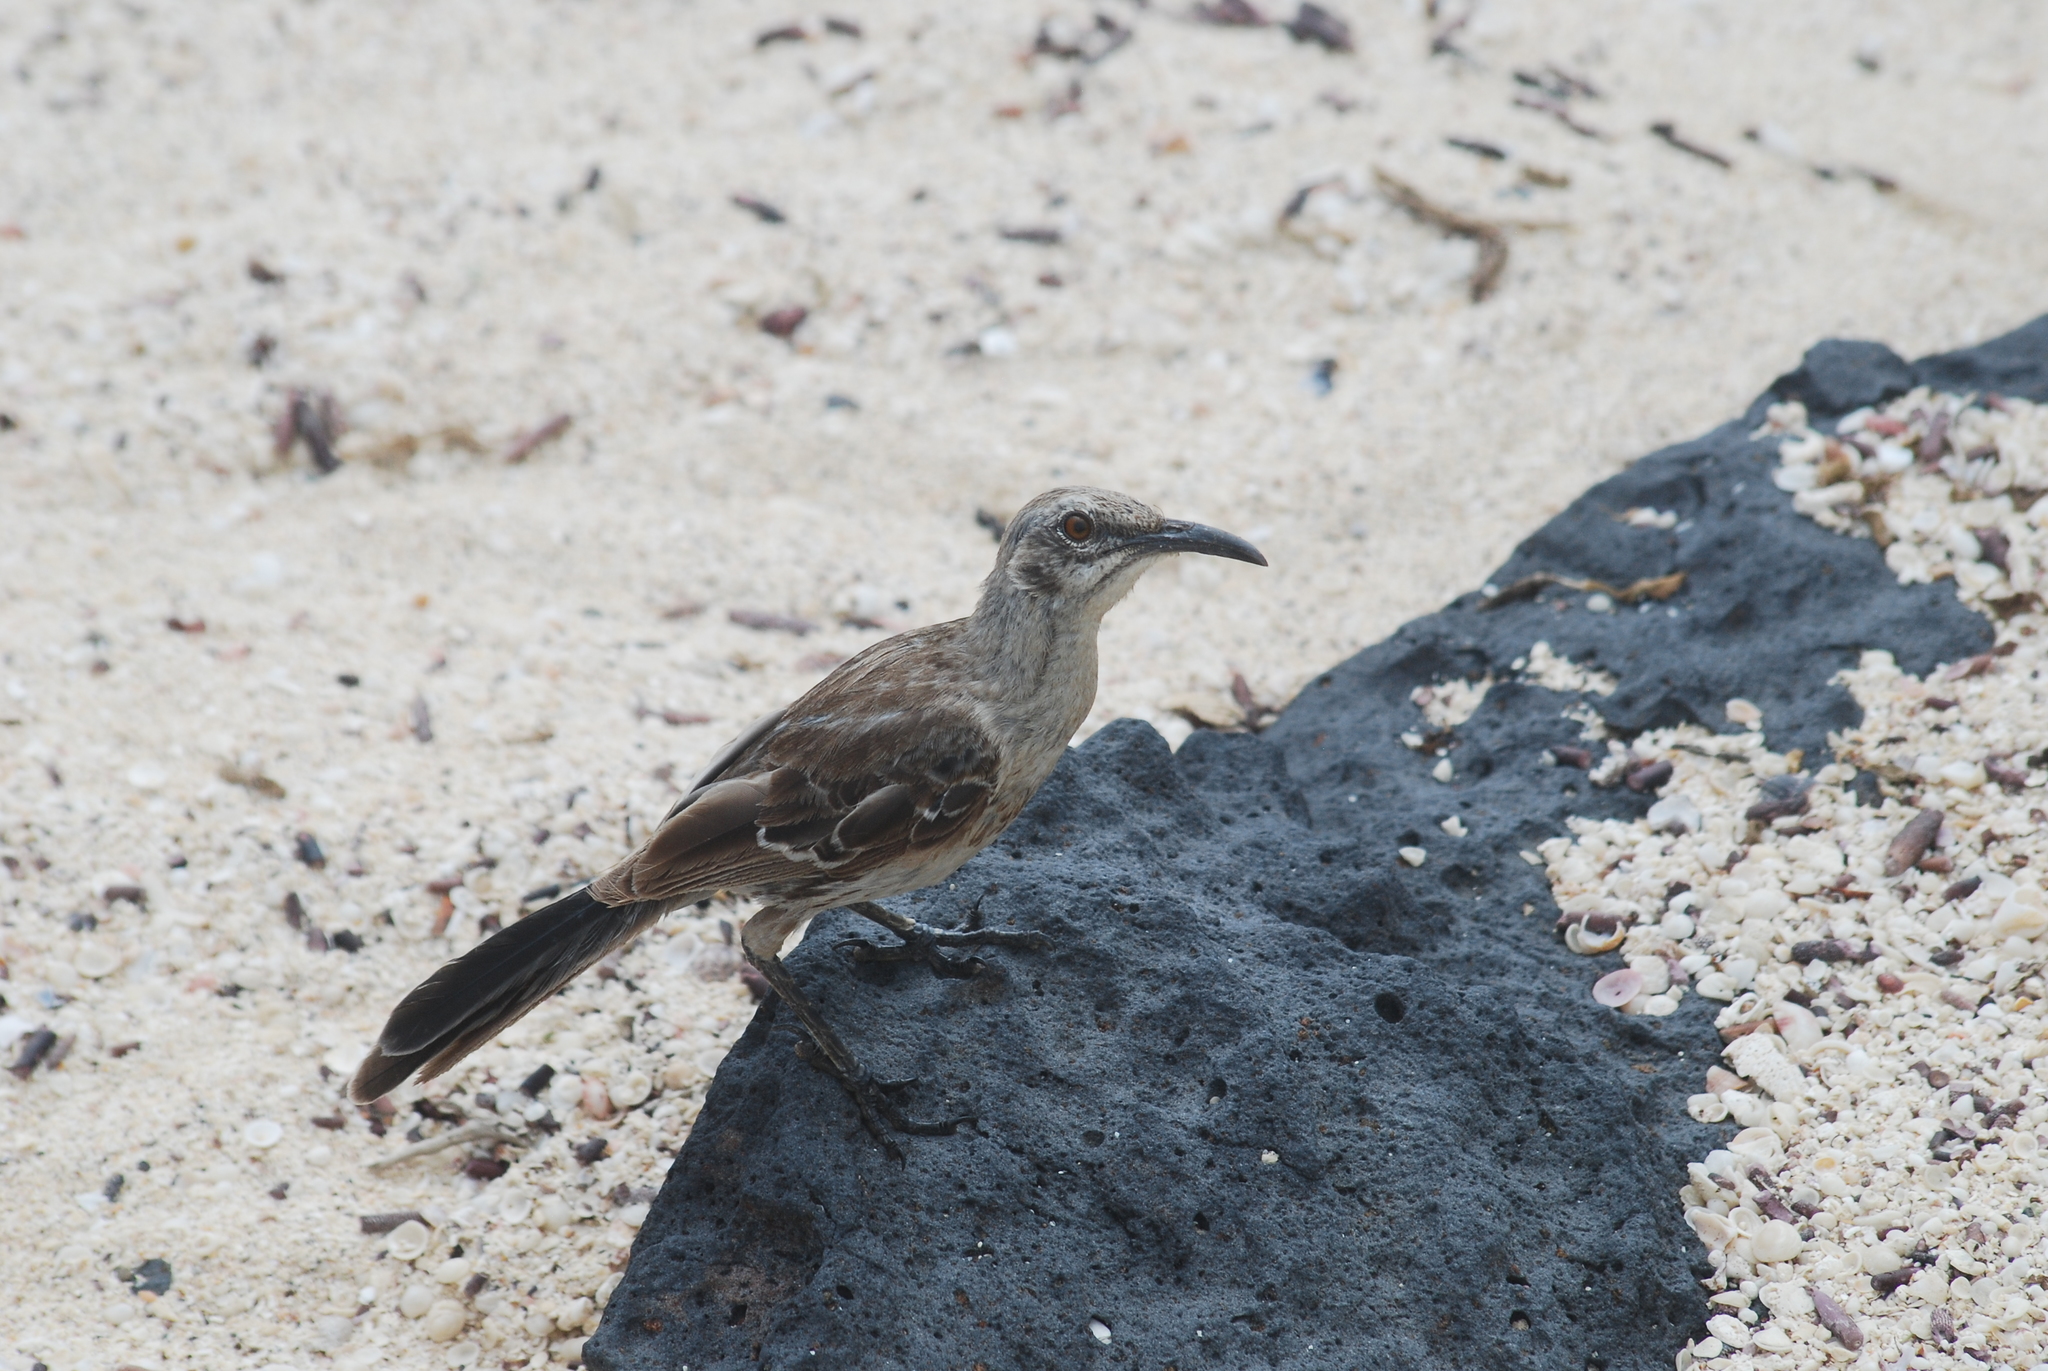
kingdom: Animalia
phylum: Chordata
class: Aves
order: Passeriformes
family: Mimidae
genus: Mimus
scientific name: Mimus macdonaldi
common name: Espanola mockingbird
